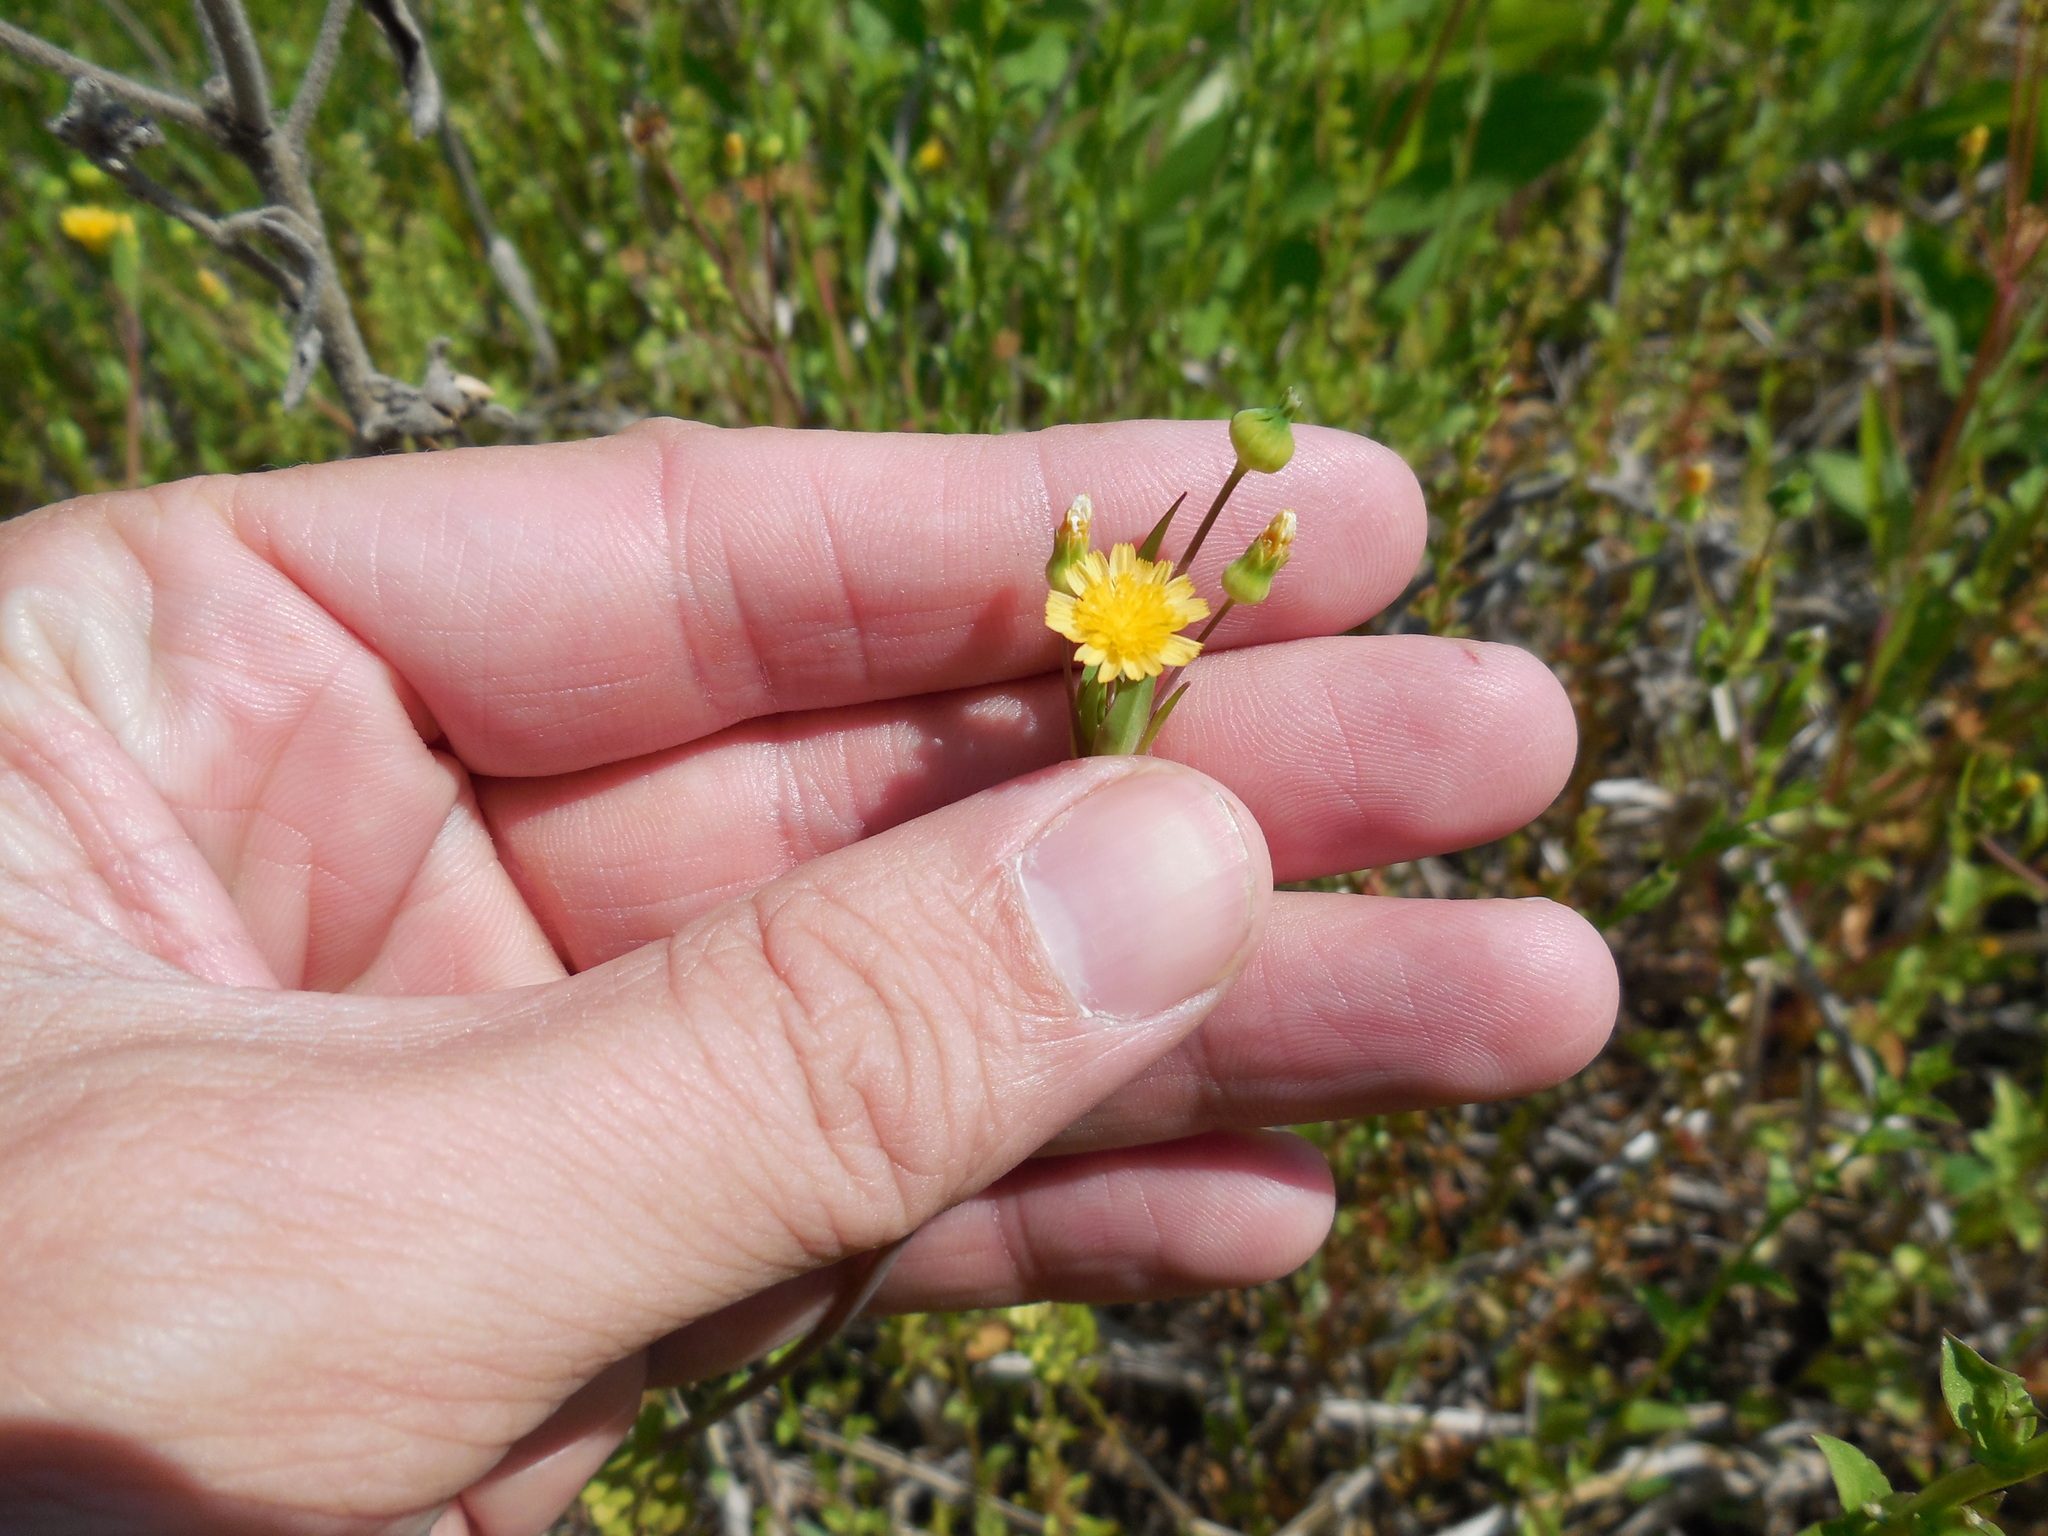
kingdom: Plantae
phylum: Tracheophyta
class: Magnoliopsida
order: Asterales
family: Asteraceae
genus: Krigia
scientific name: Krigia cespitosa
